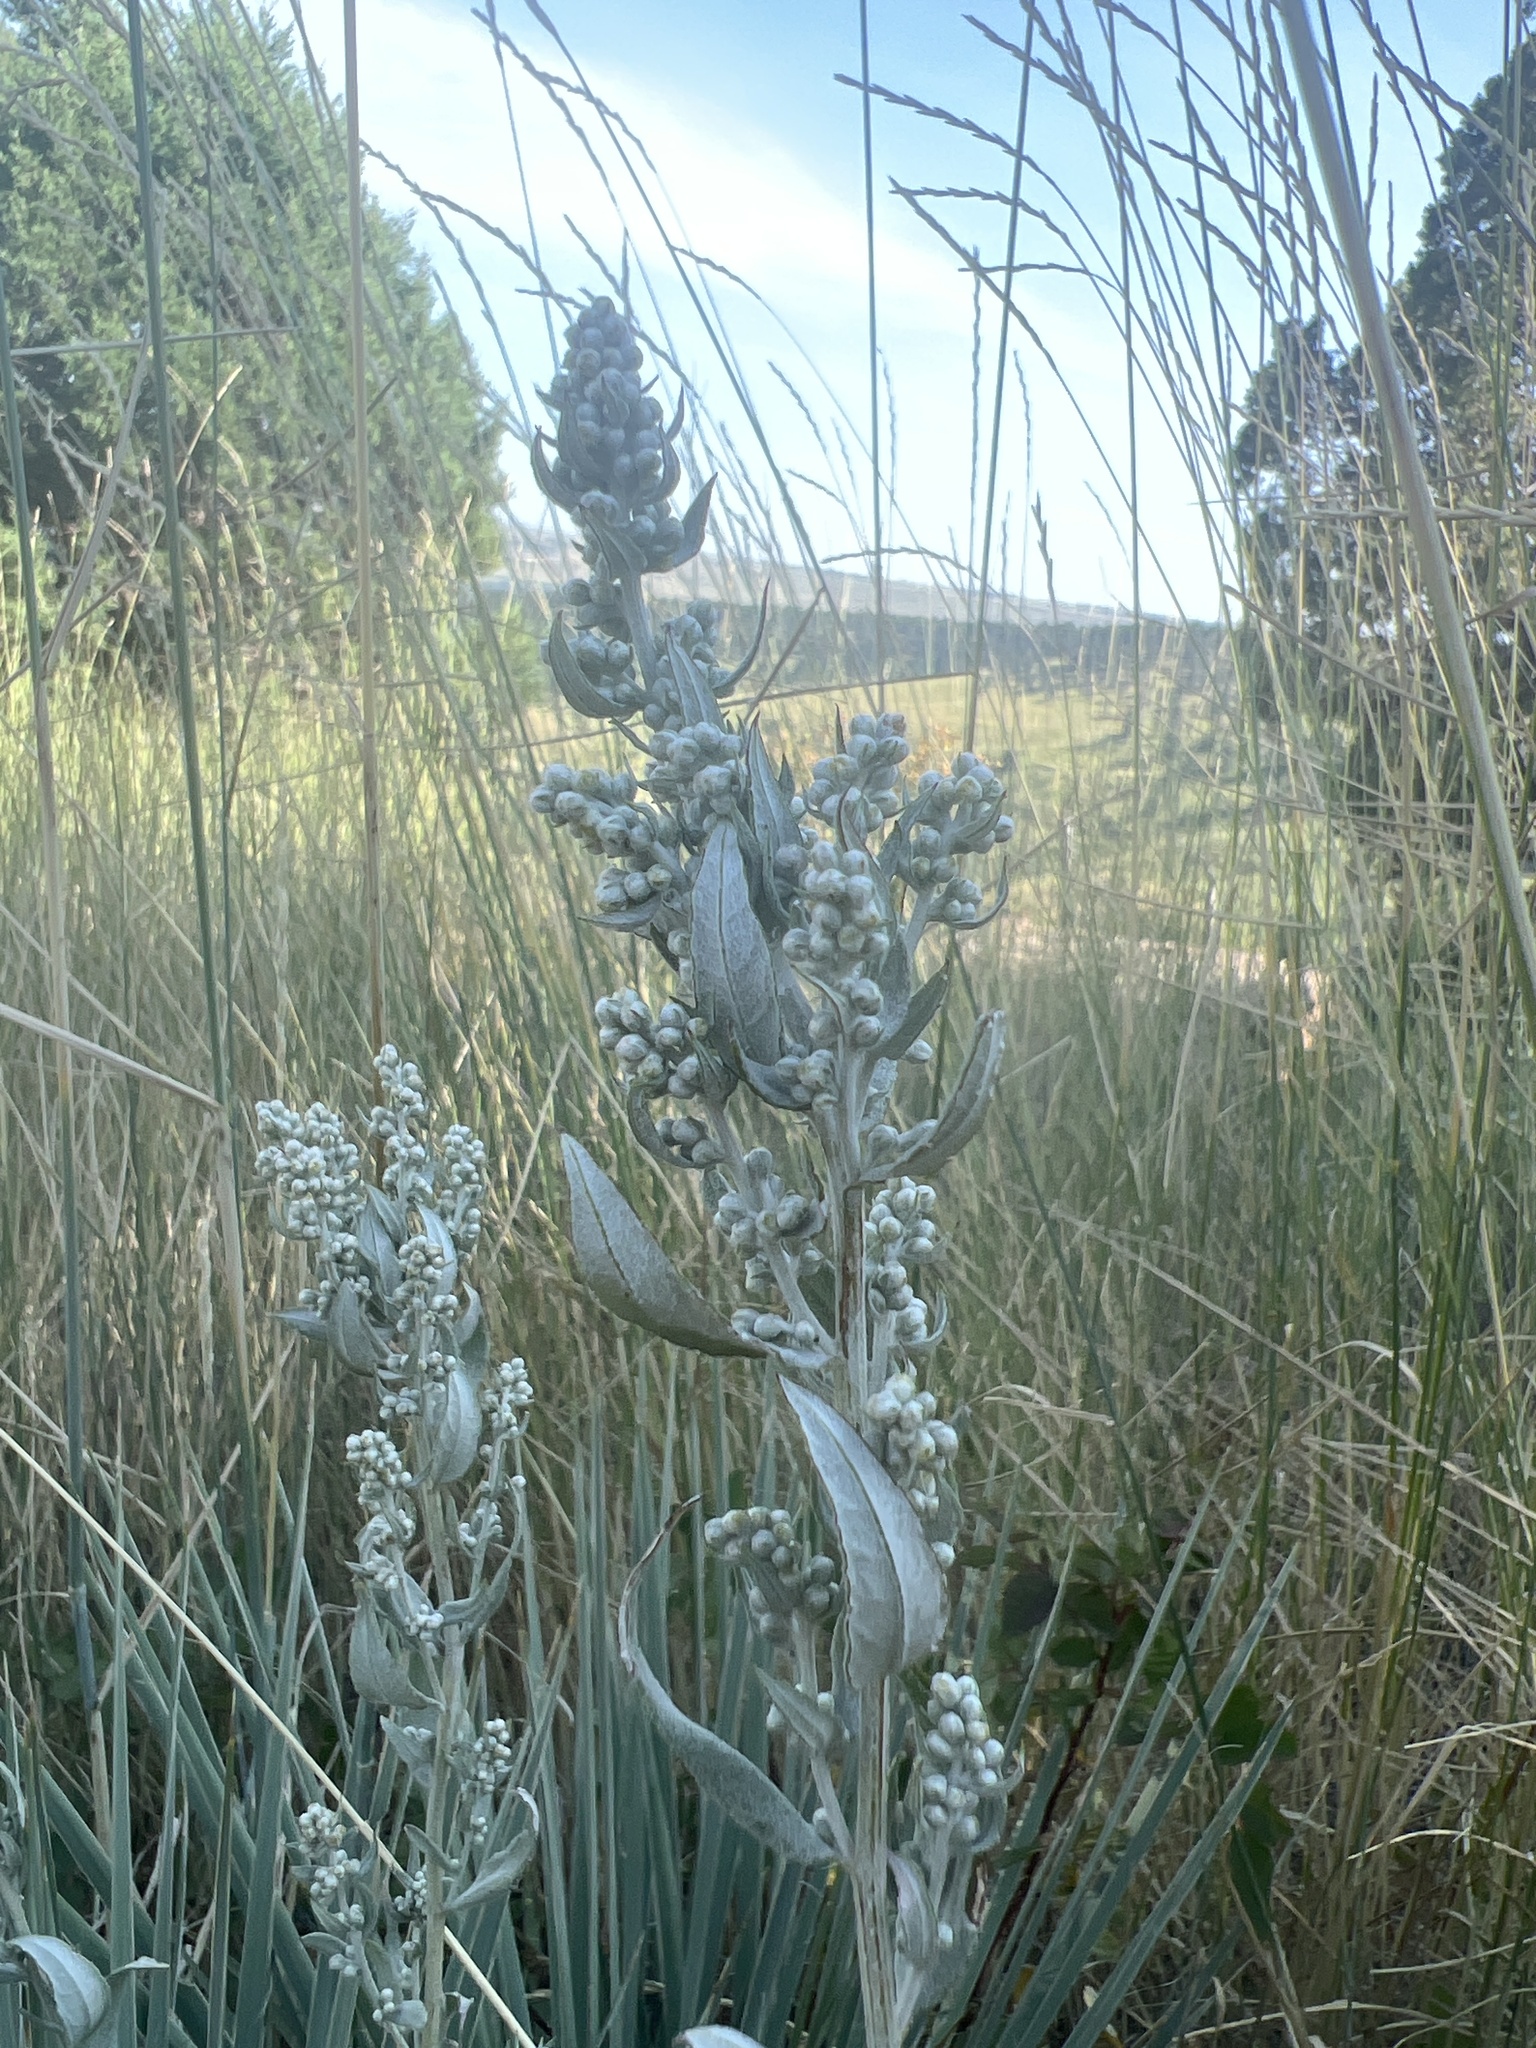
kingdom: Plantae
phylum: Tracheophyta
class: Magnoliopsida
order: Asterales
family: Asteraceae
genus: Artemisia
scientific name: Artemisia ludoviciana
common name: Western mugwort
